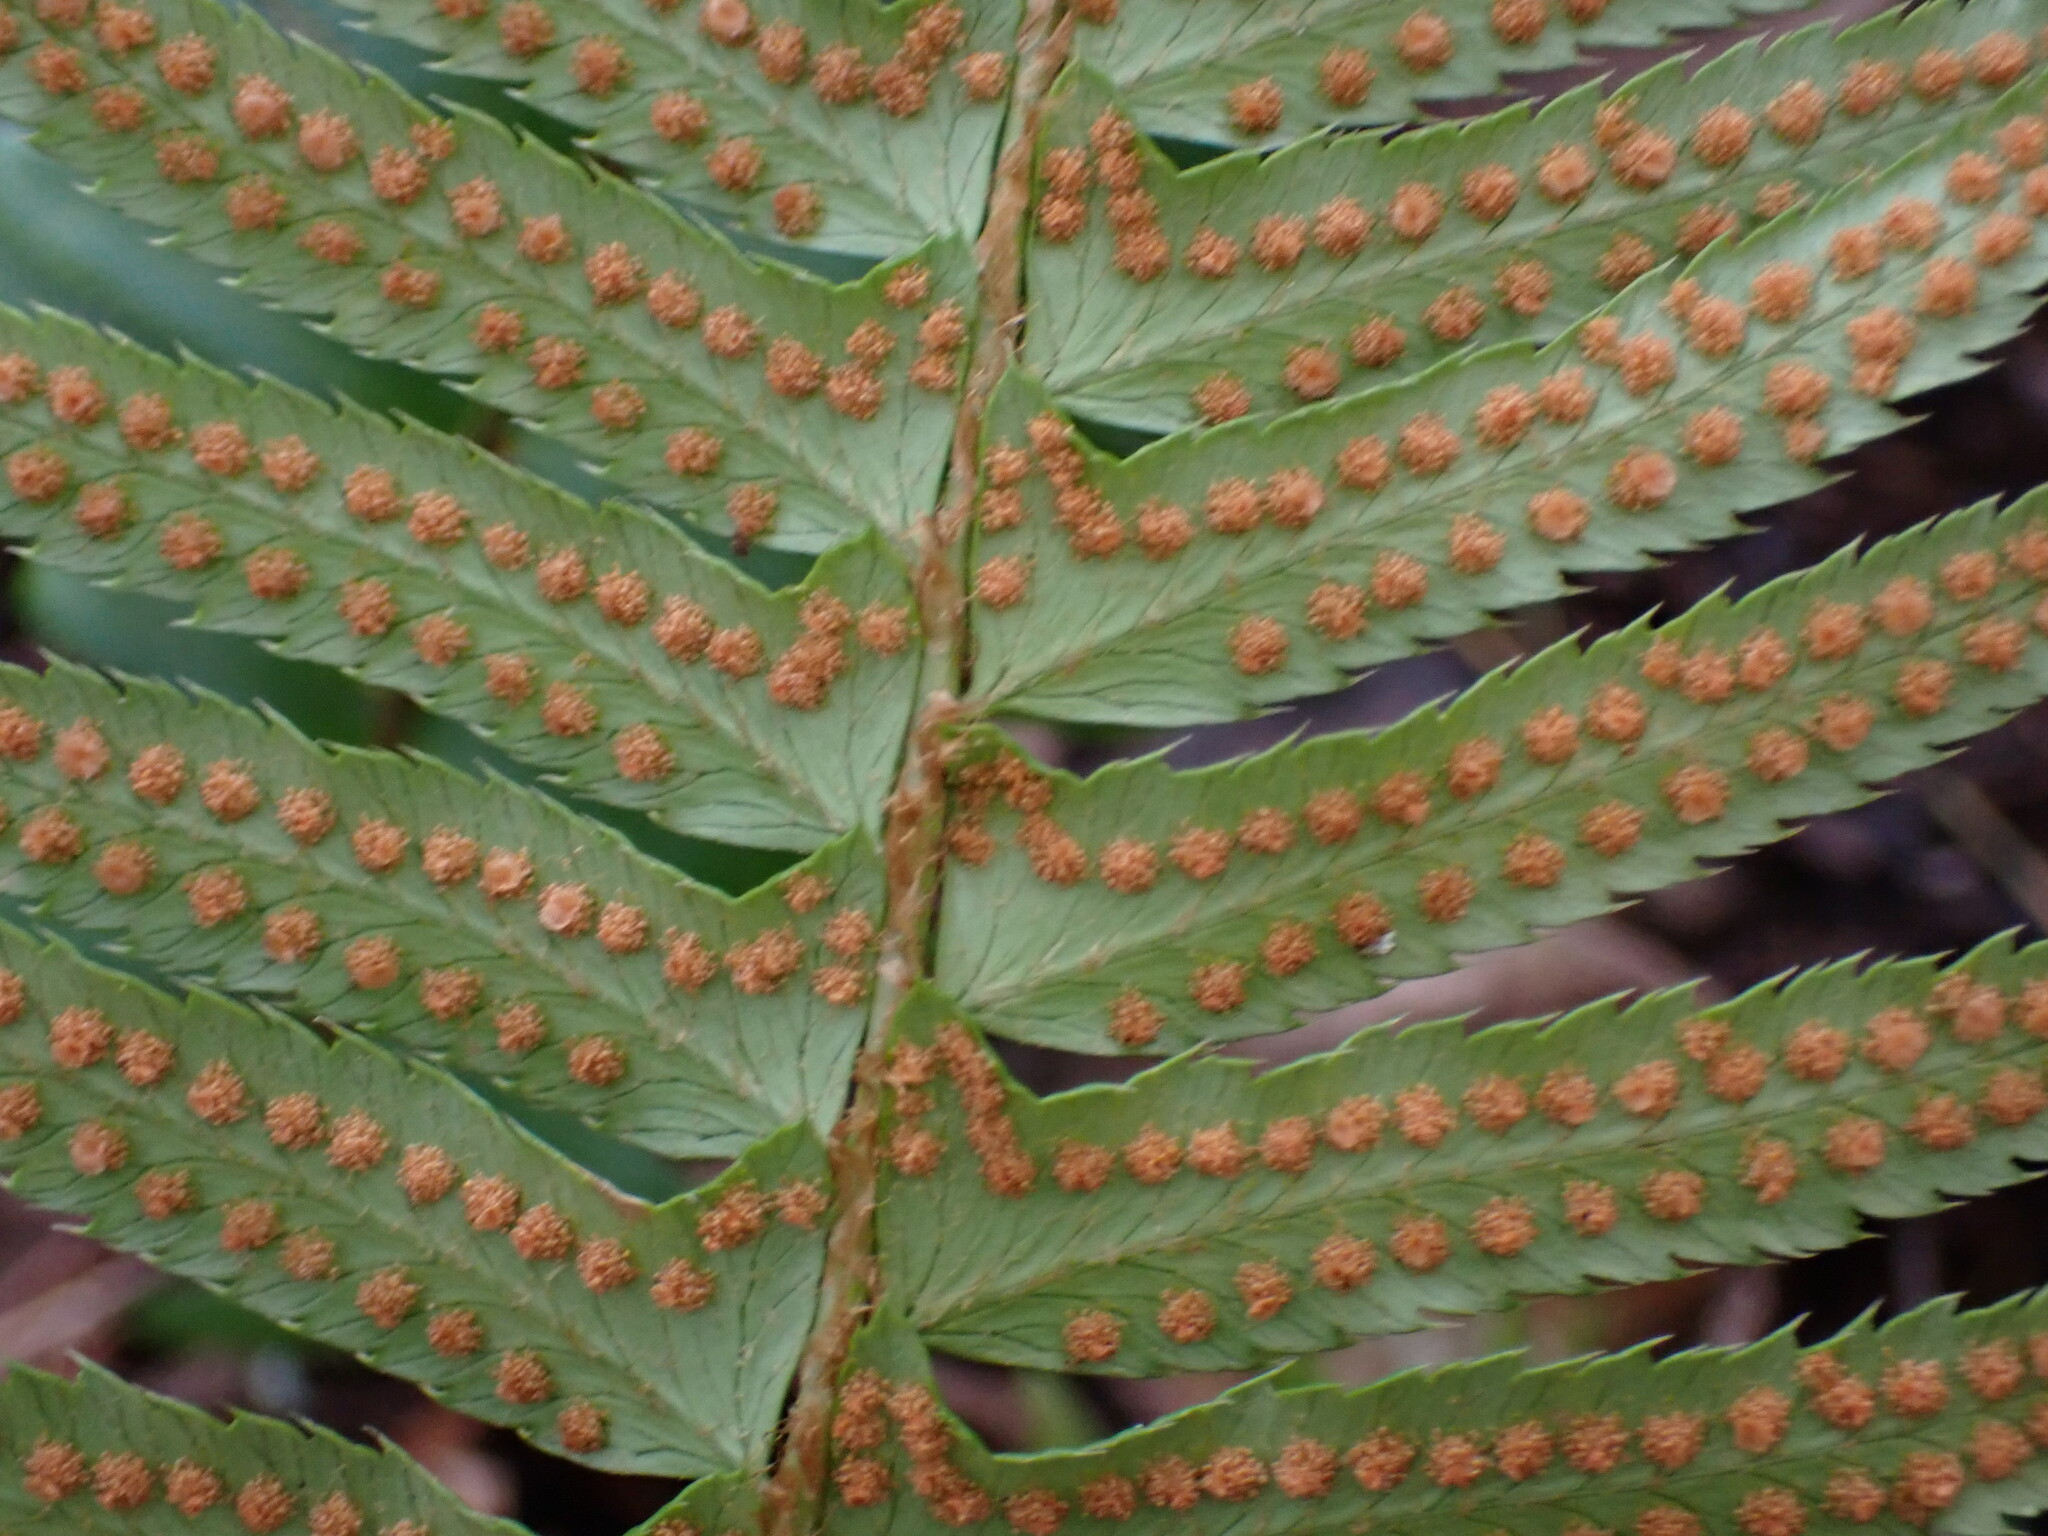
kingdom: Plantae
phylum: Tracheophyta
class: Polypodiopsida
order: Polypodiales
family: Dryopteridaceae
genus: Polystichum
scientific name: Polystichum munitum
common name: Western sword-fern
